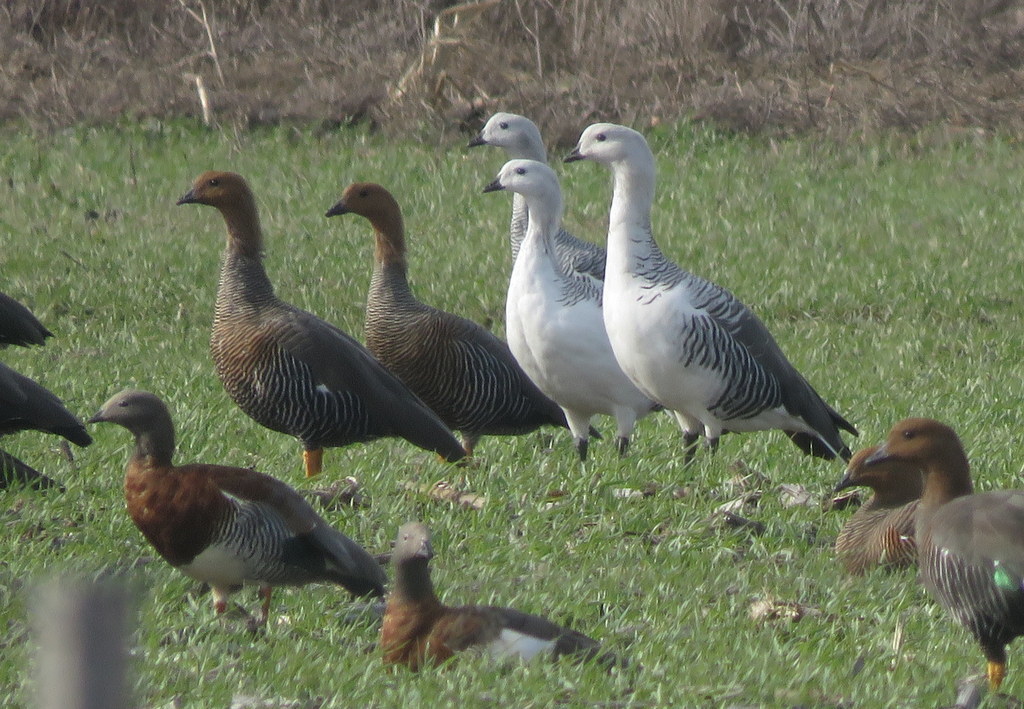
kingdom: Animalia
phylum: Chordata
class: Aves
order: Anseriformes
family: Anatidae
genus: Chloephaga
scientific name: Chloephaga picta
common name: Upland goose
